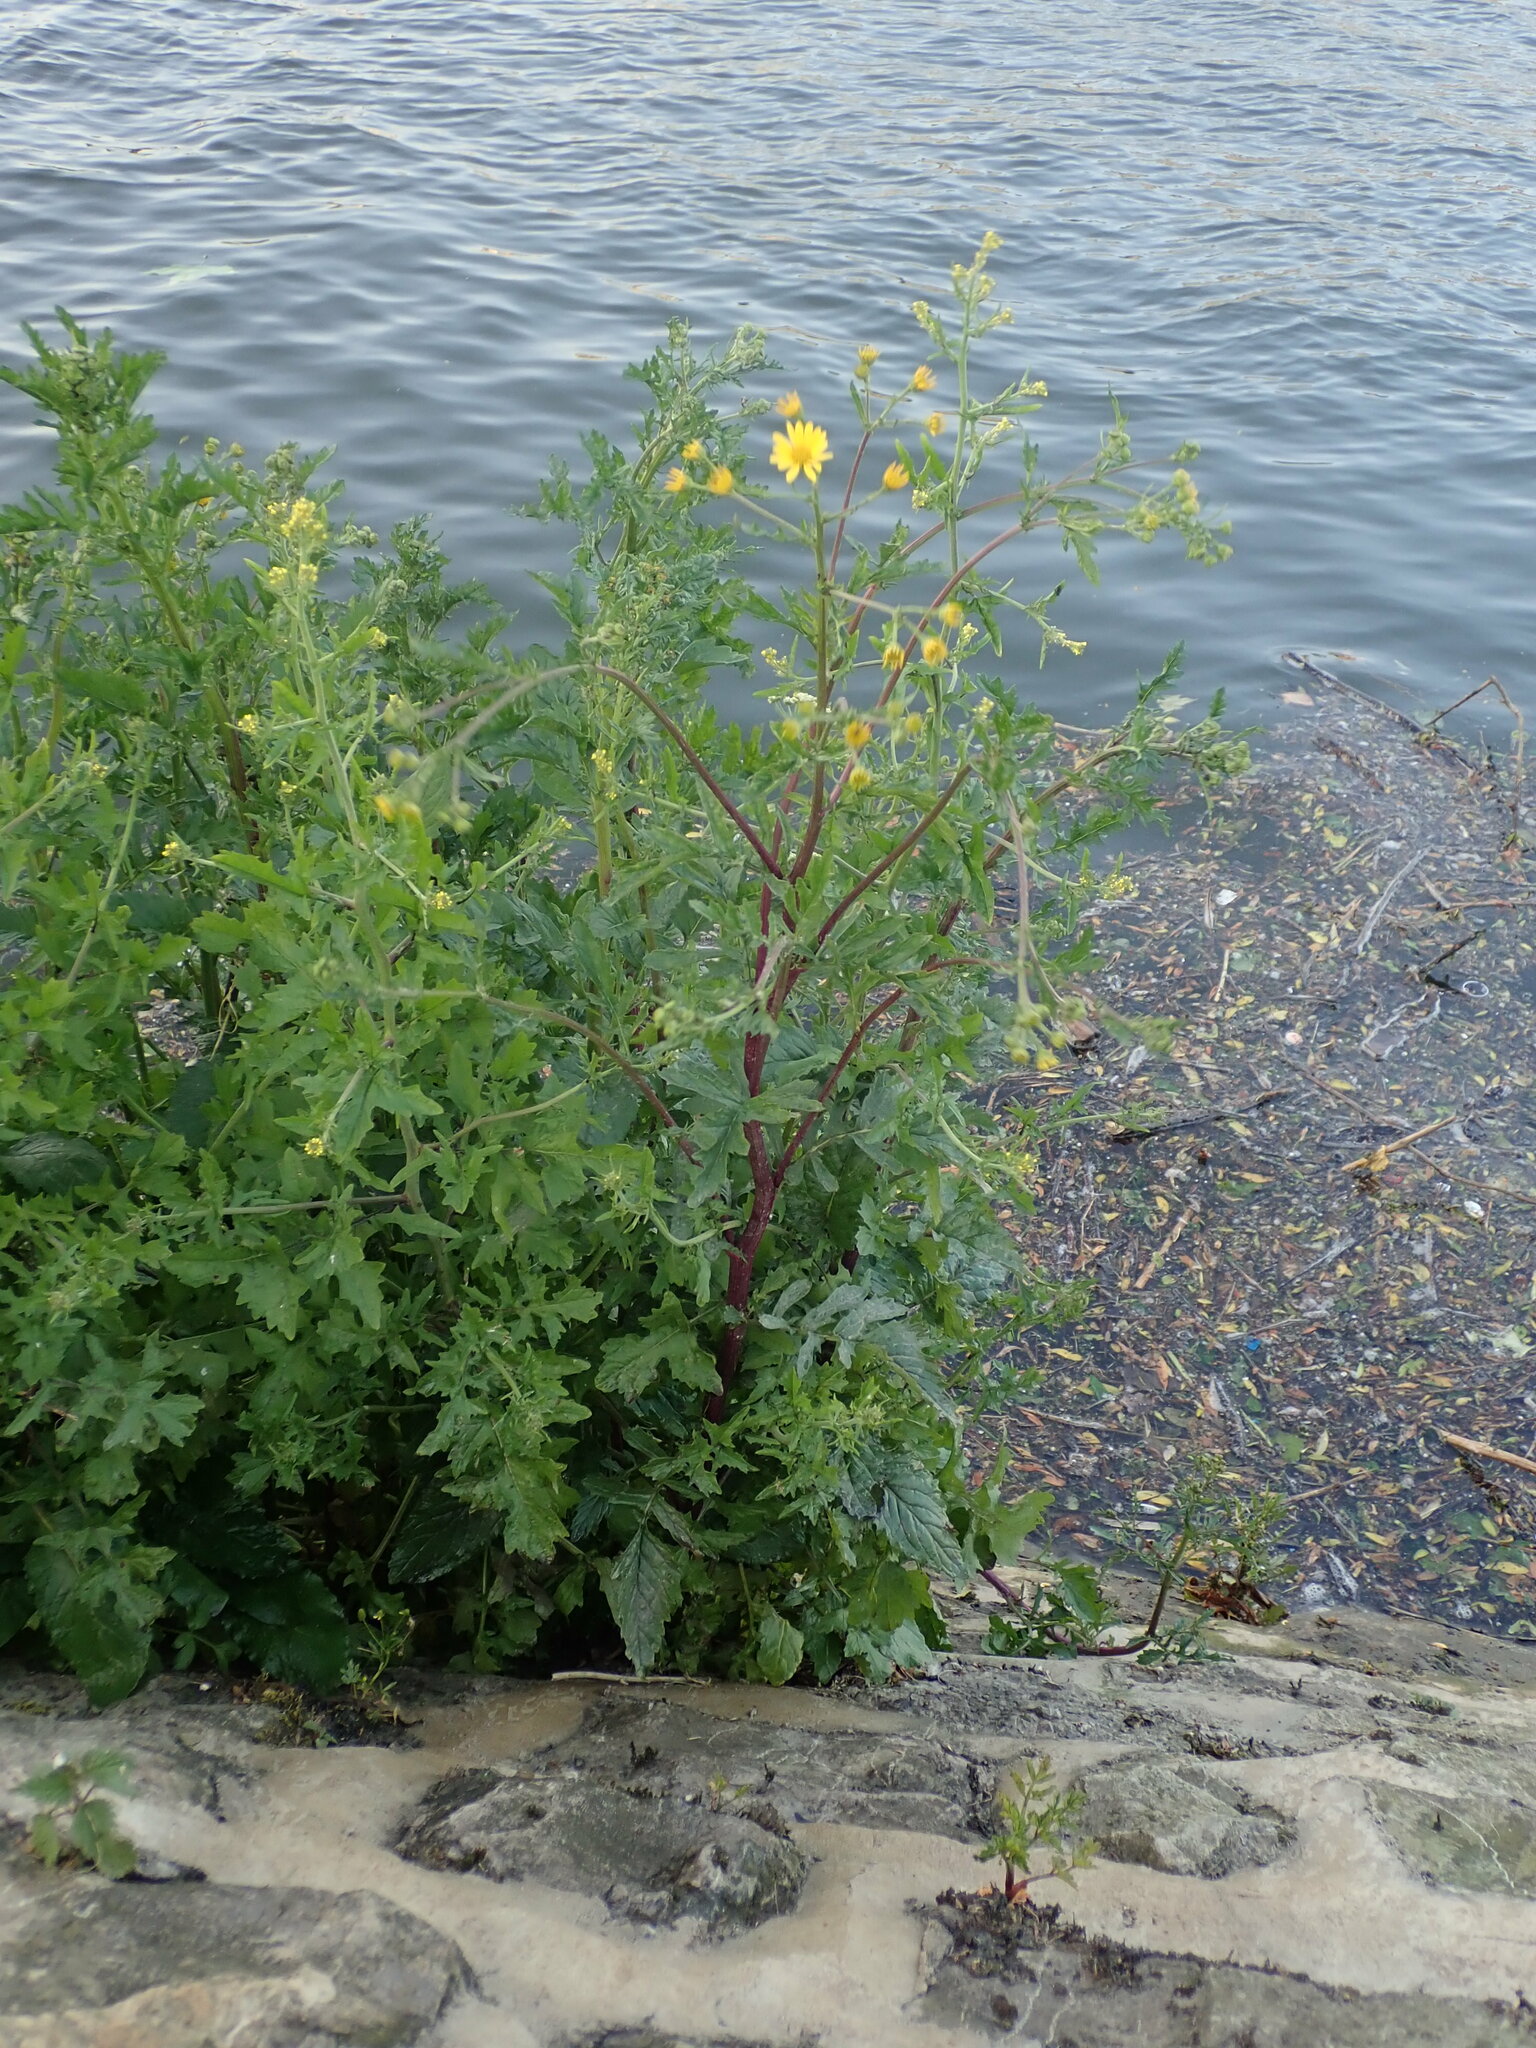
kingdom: Plantae
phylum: Tracheophyta
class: Magnoliopsida
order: Asterales
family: Asteraceae
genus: Jacobaea
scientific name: Jacobaea aquatica
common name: Water ragwort
